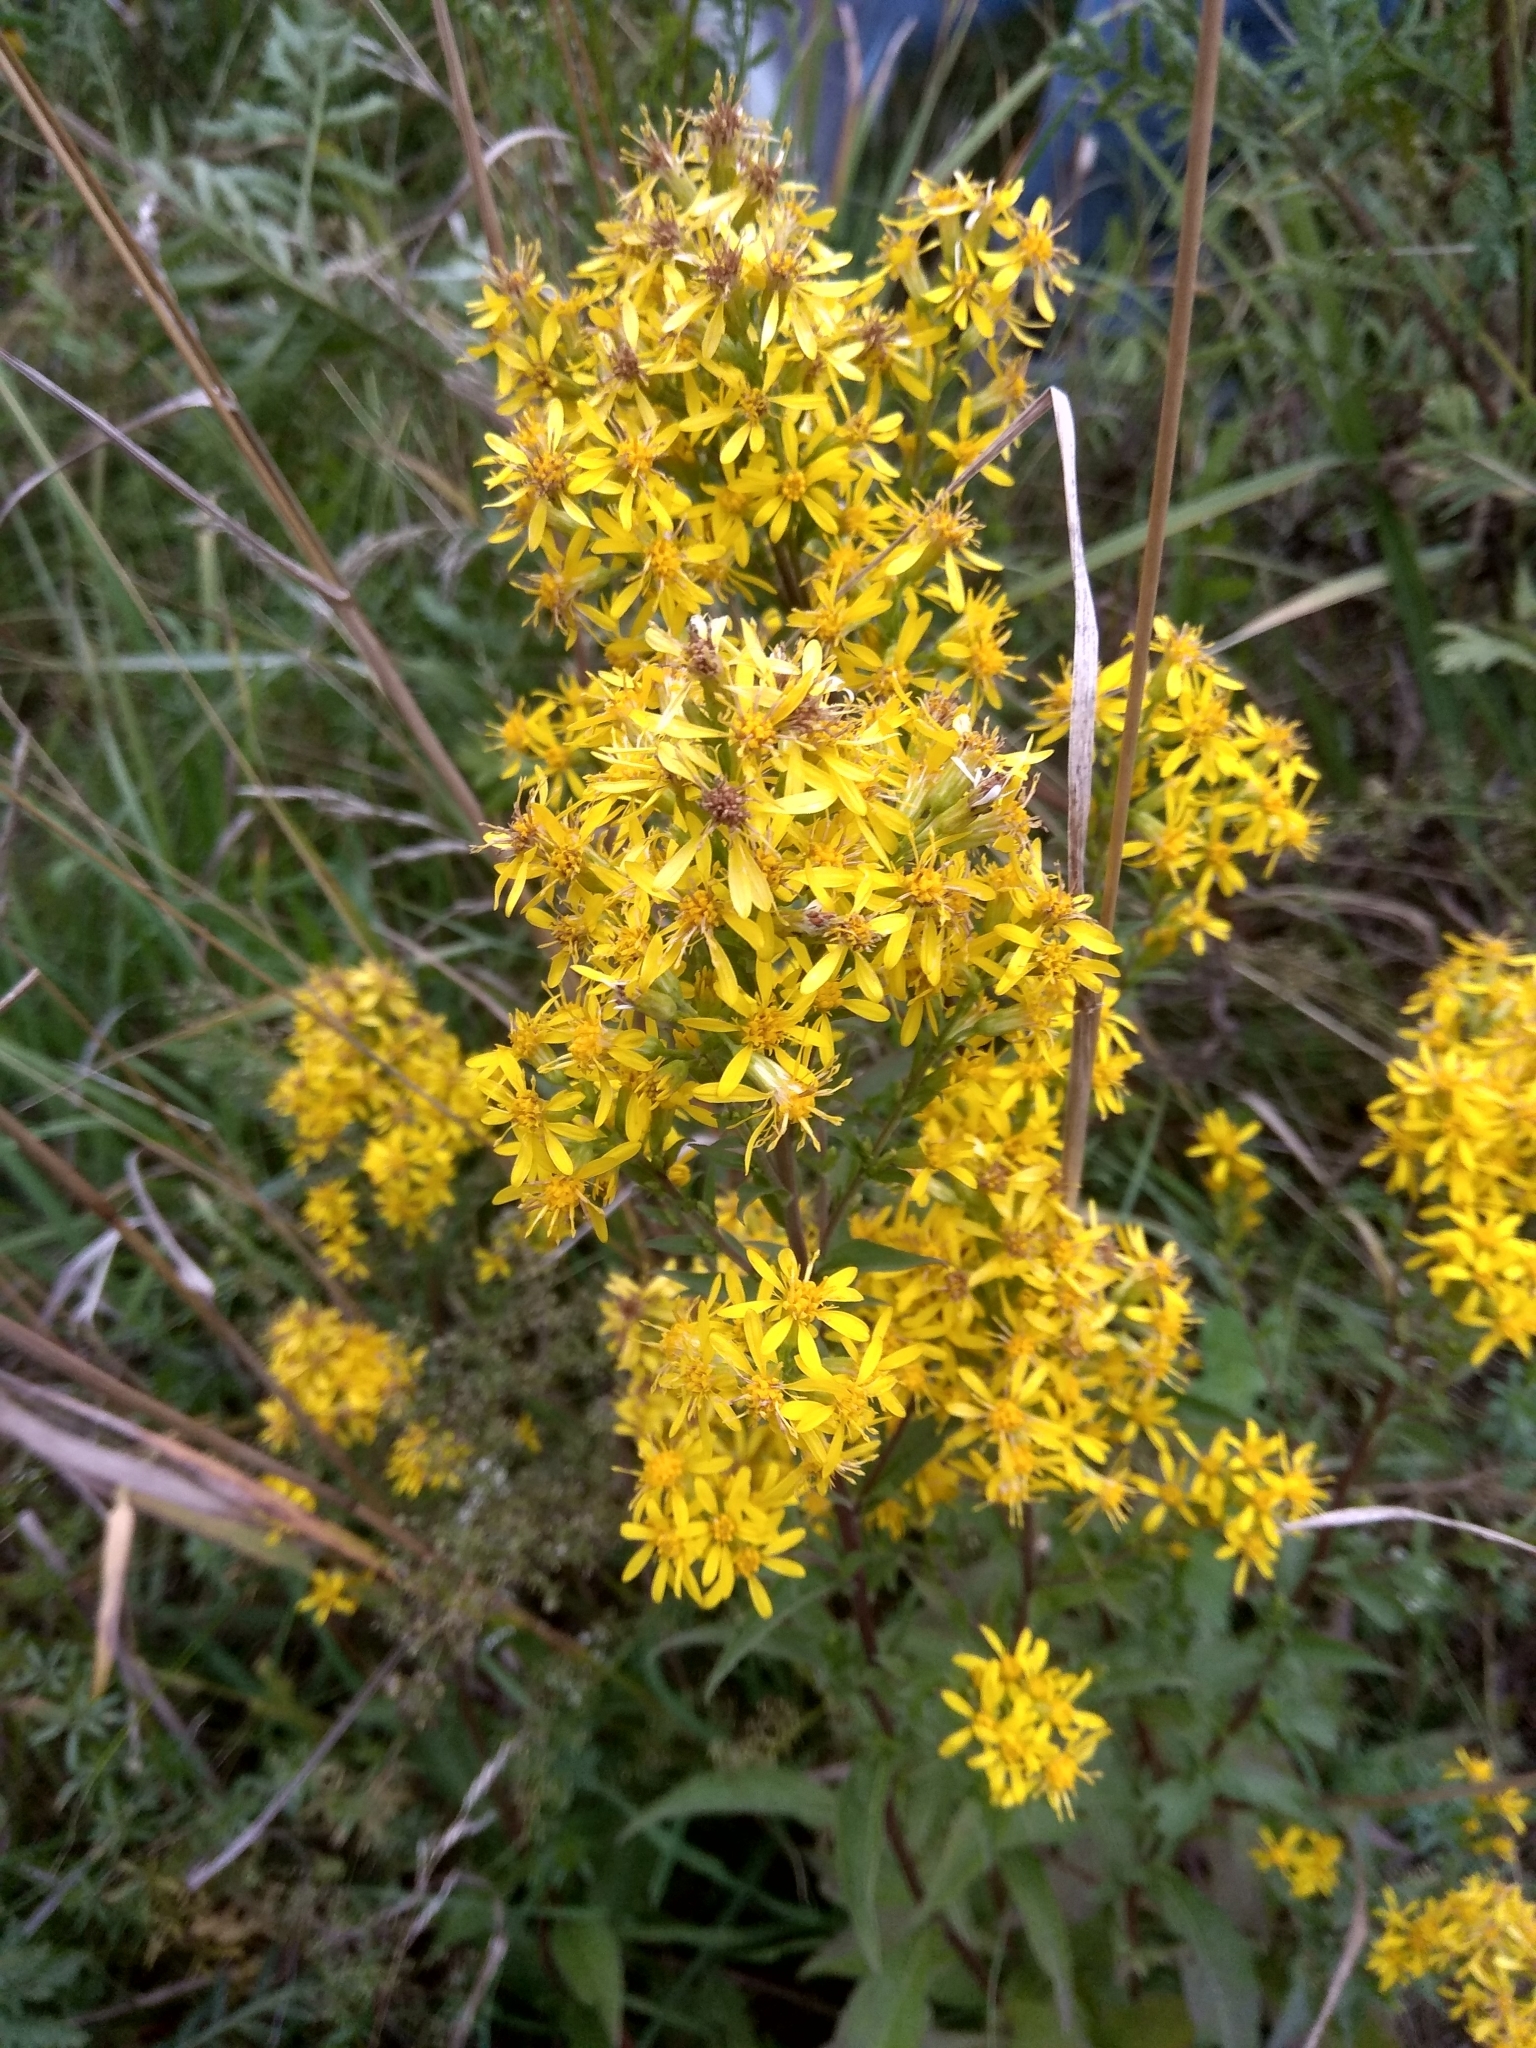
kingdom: Plantae
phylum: Tracheophyta
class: Magnoliopsida
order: Asterales
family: Asteraceae
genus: Solidago
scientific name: Solidago virgaurea
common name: Goldenrod
